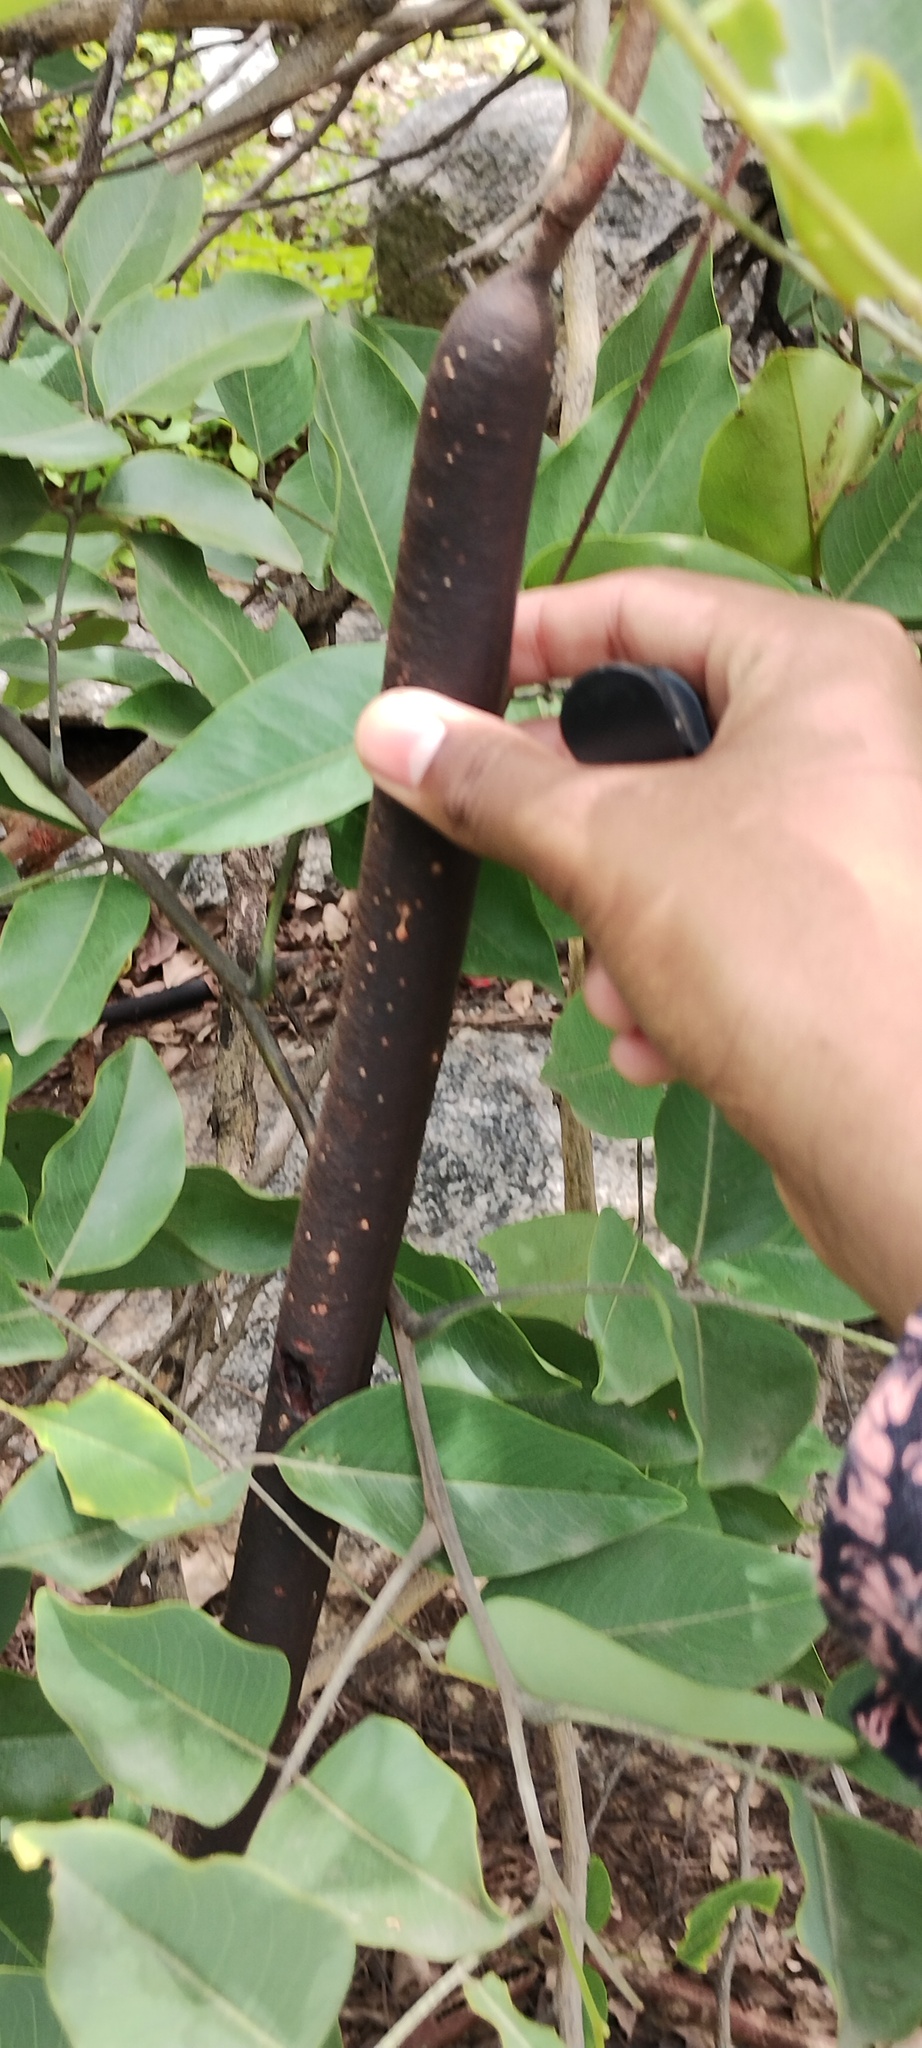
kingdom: Plantae
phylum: Tracheophyta
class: Magnoliopsida
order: Fabales
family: Fabaceae
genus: Cassia
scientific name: Cassia fistula
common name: Golden shower
